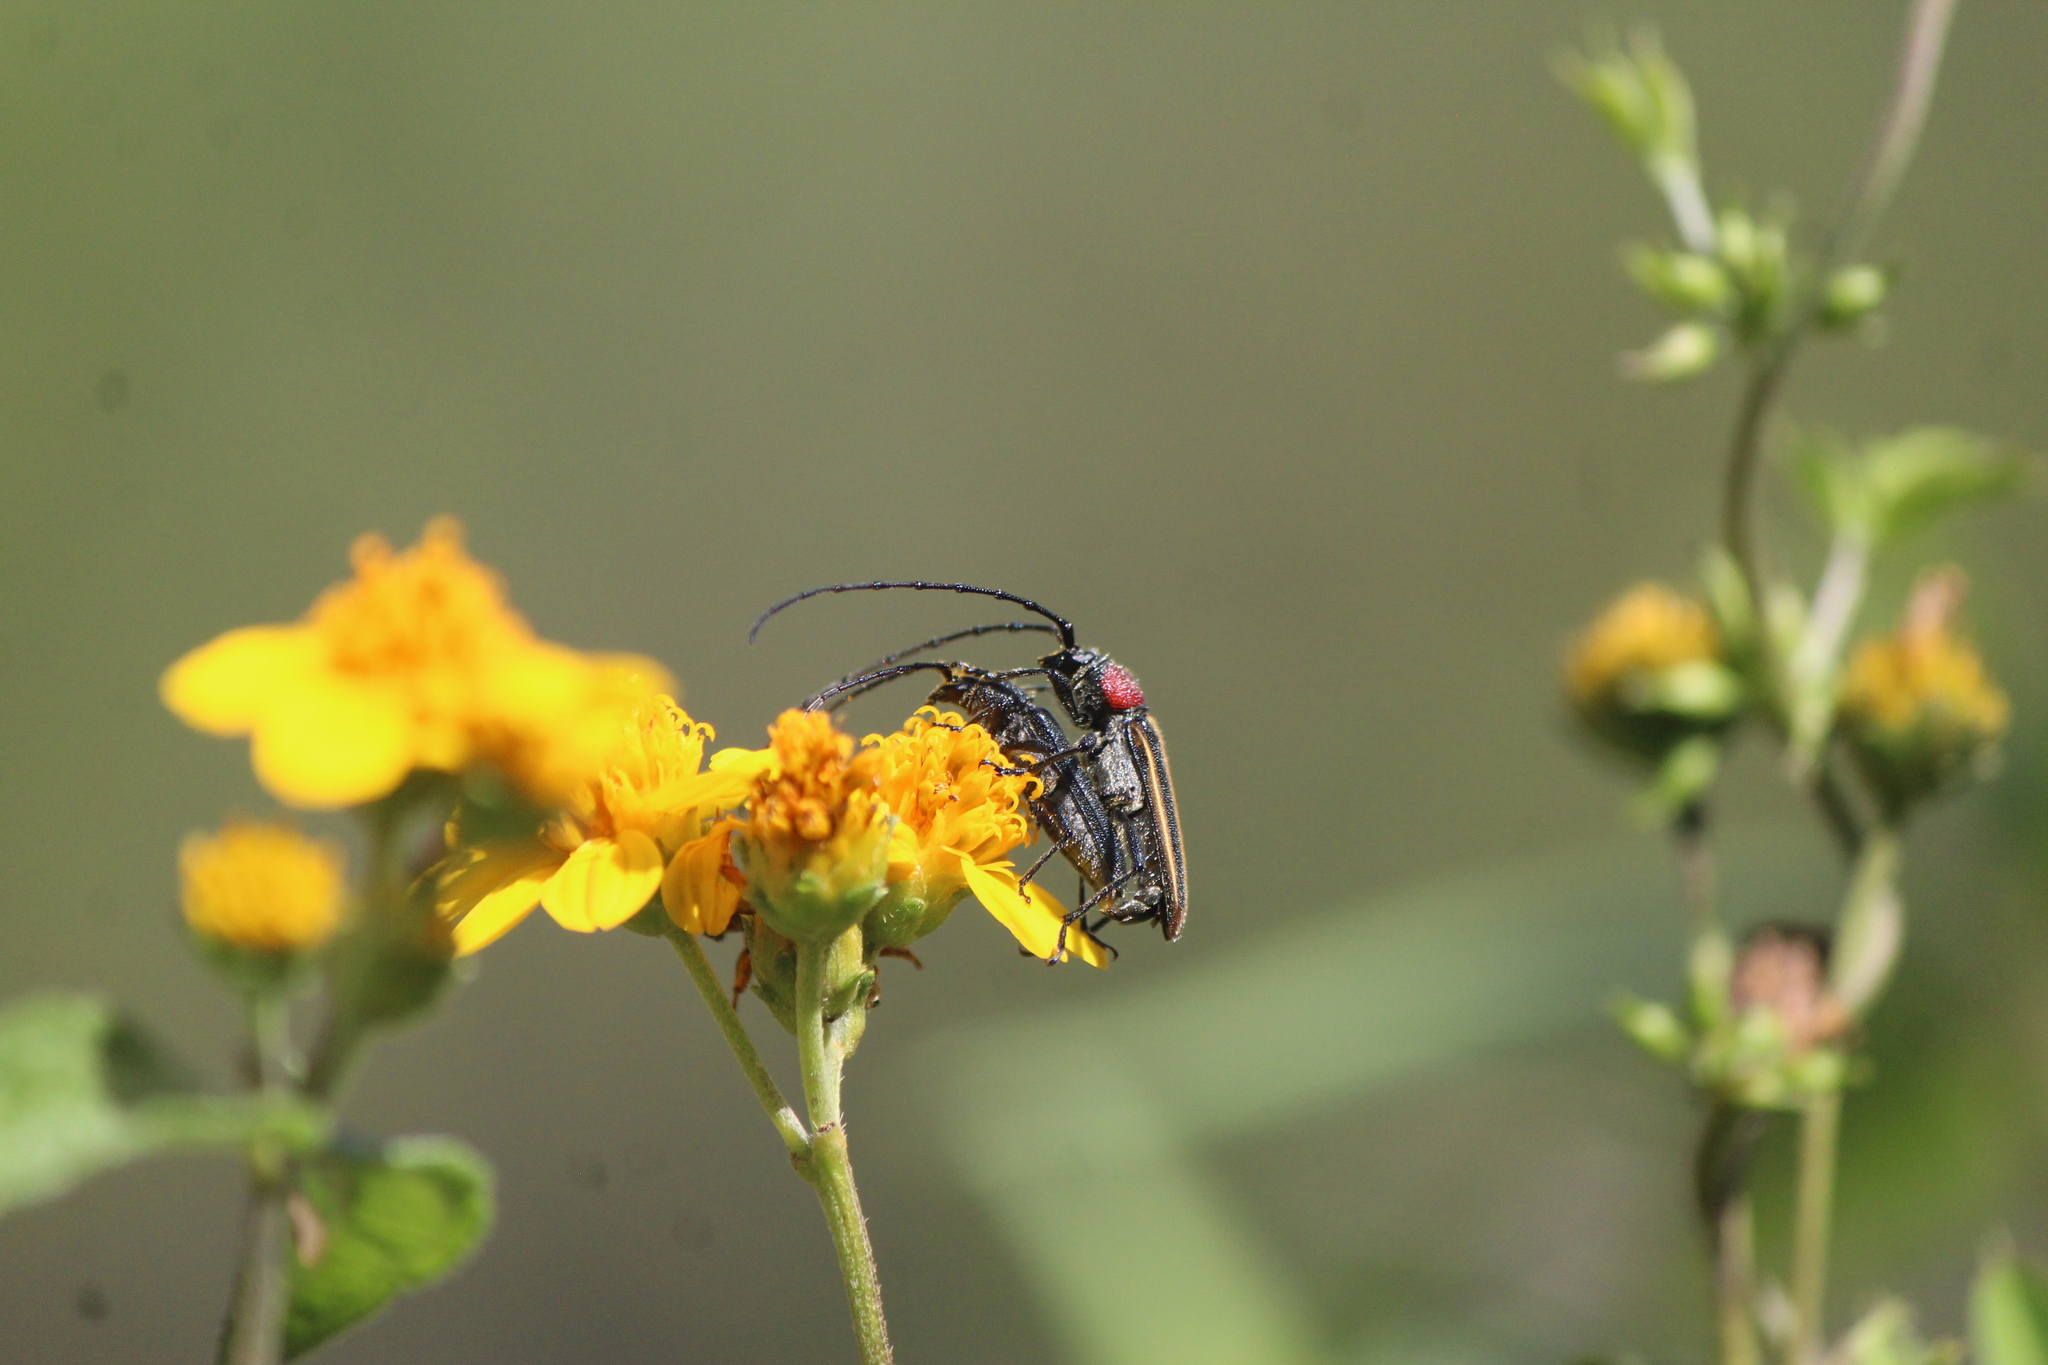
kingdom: Animalia
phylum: Arthropoda
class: Insecta
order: Coleoptera
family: Cerambycidae
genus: Mannophorus
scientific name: Mannophorus laetus
